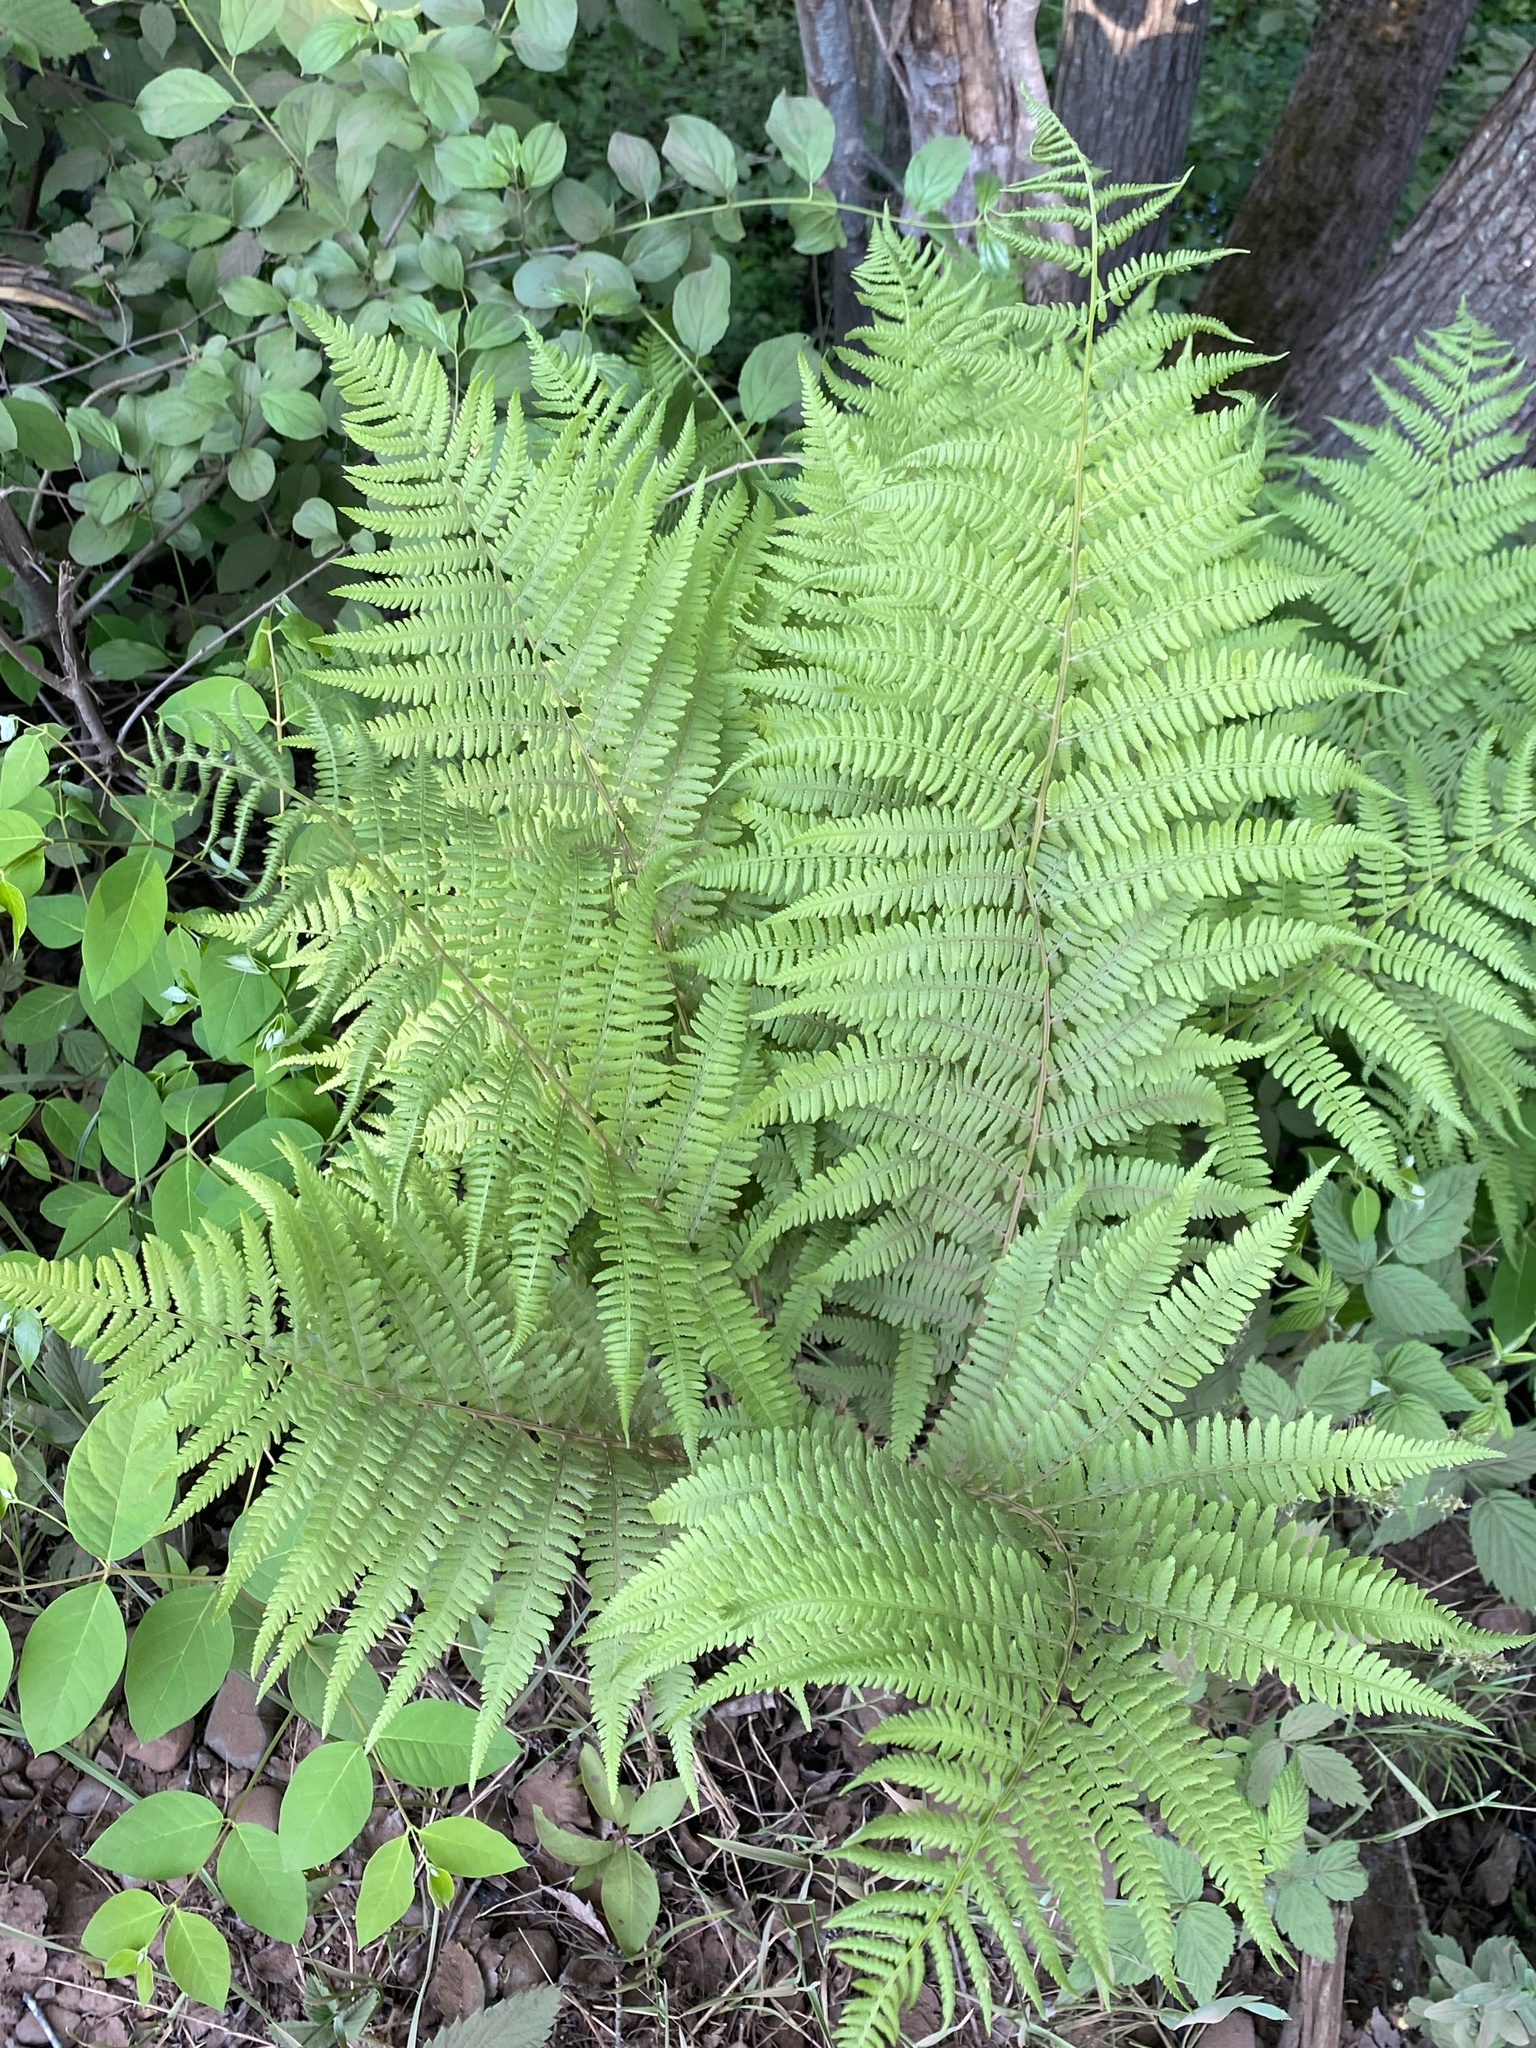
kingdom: Plantae
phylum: Tracheophyta
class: Polypodiopsida
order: Polypodiales
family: Athyriaceae
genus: Athyrium
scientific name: Athyrium angustum
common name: Northern lady fern
